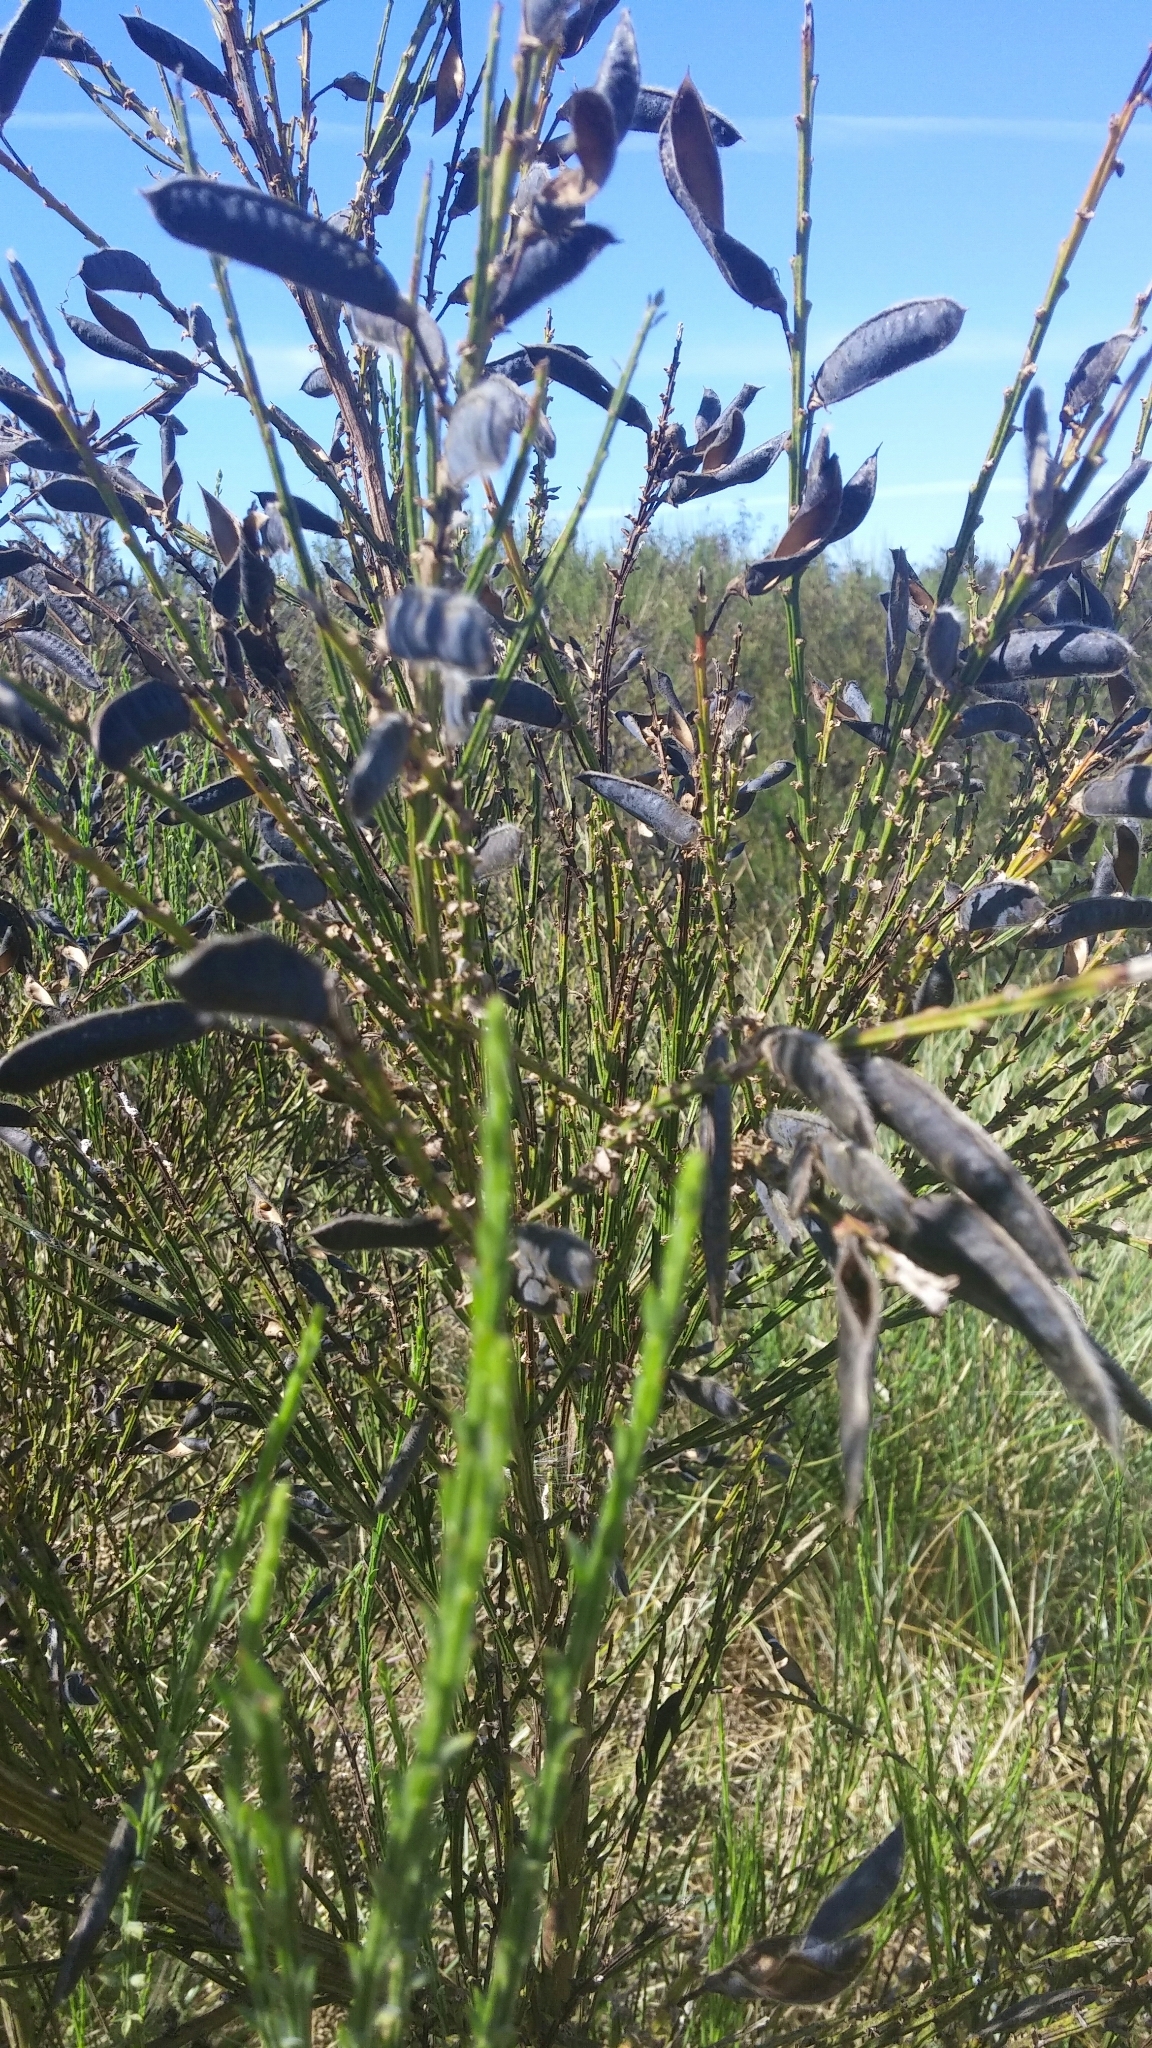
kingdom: Plantae
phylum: Tracheophyta
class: Magnoliopsida
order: Fabales
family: Fabaceae
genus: Cytisus
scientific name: Cytisus scoparius
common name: Scotch broom
